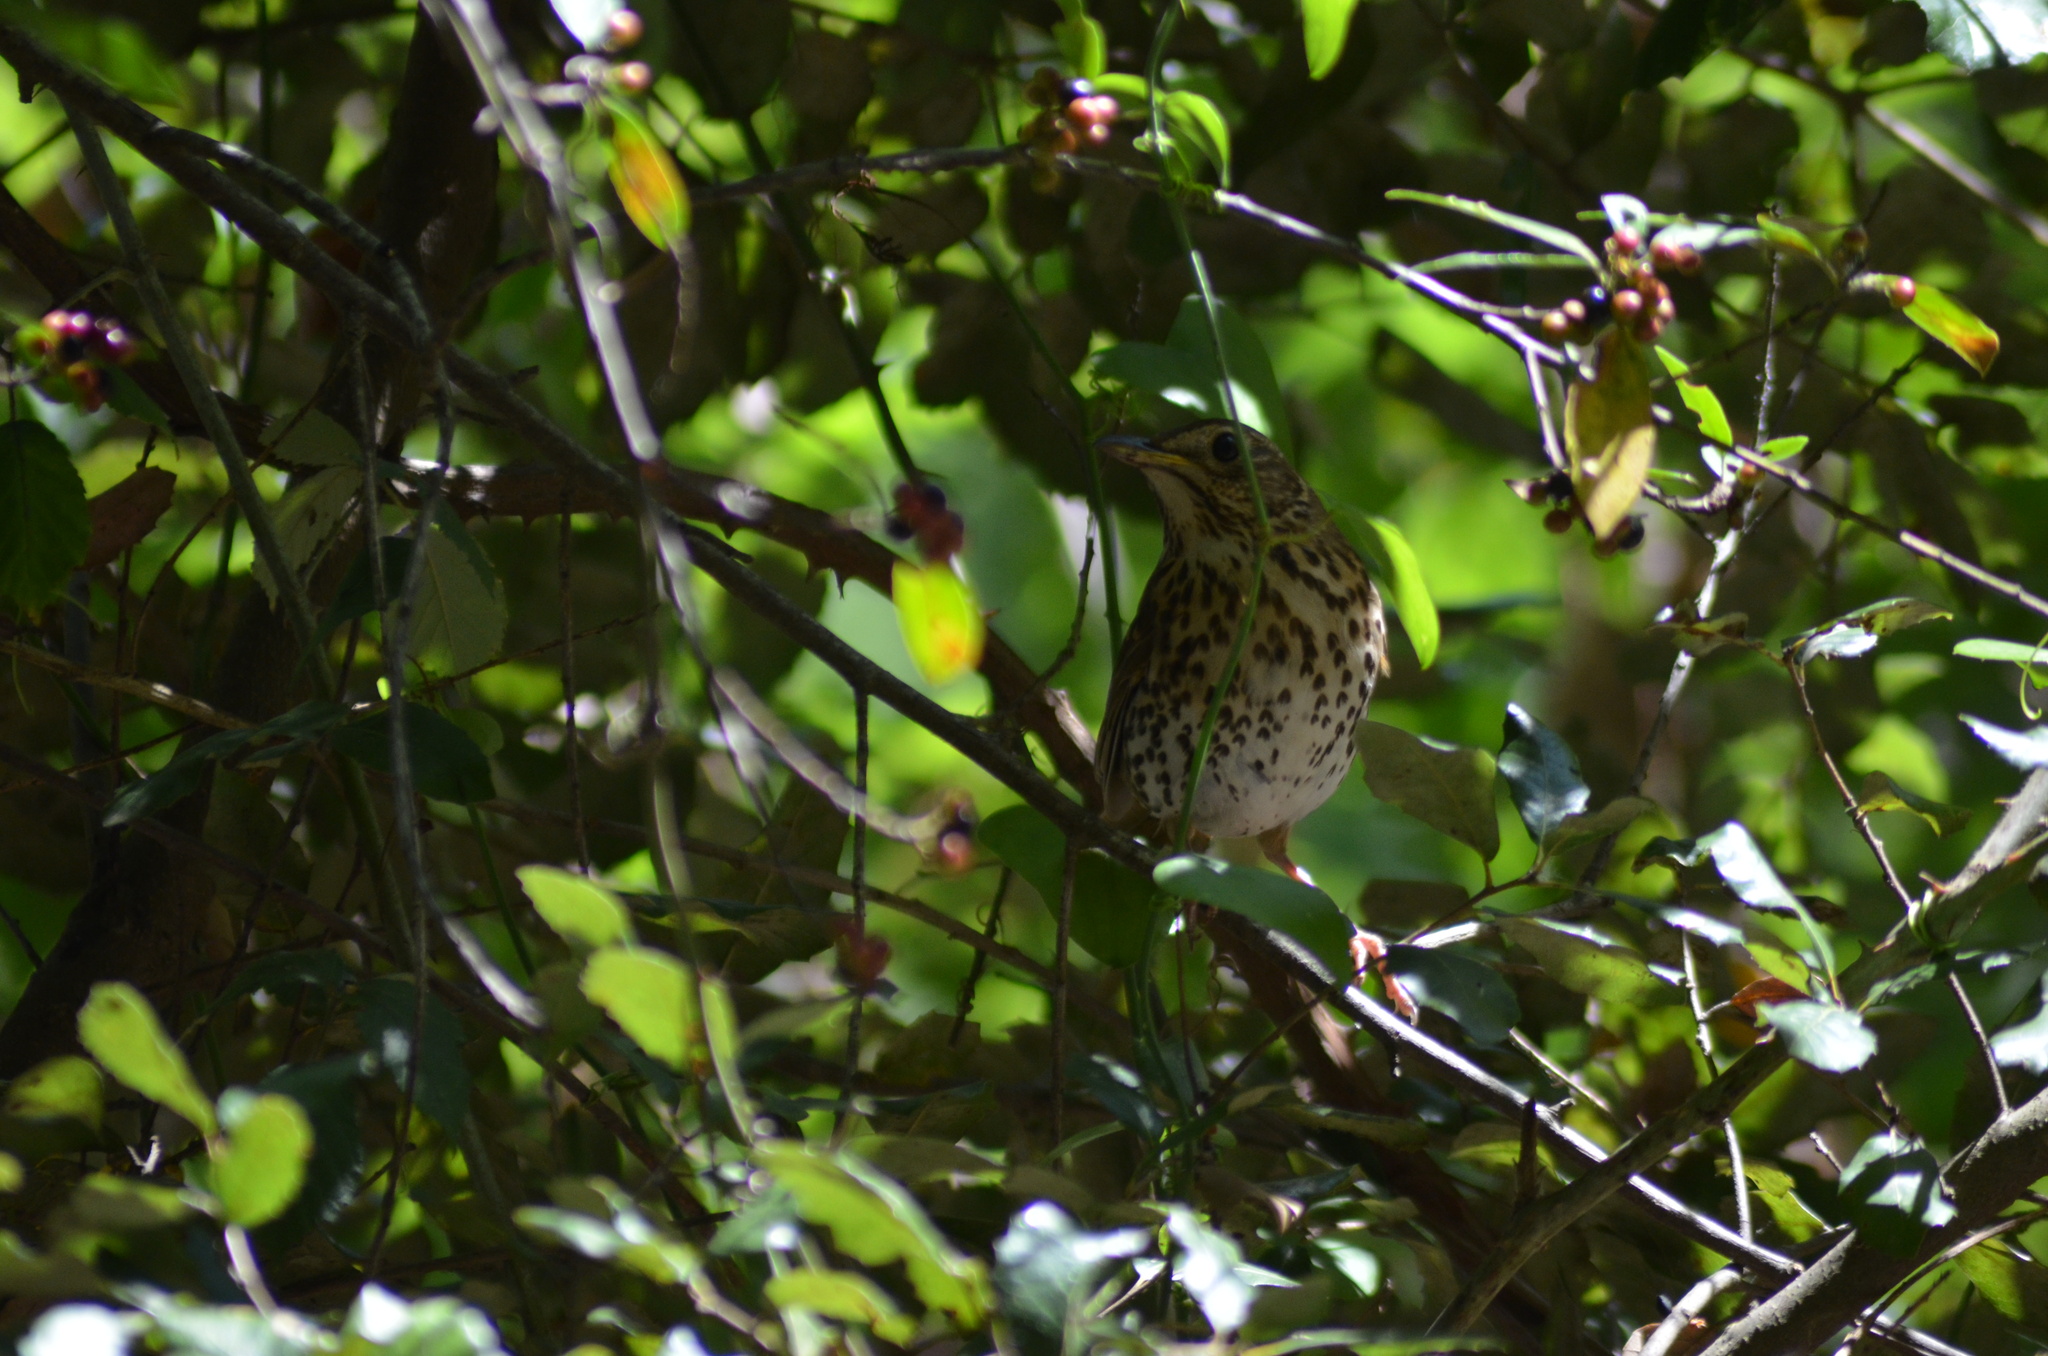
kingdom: Animalia
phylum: Chordata
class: Aves
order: Passeriformes
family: Turdidae
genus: Turdus
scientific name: Turdus philomelos
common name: Song thrush
